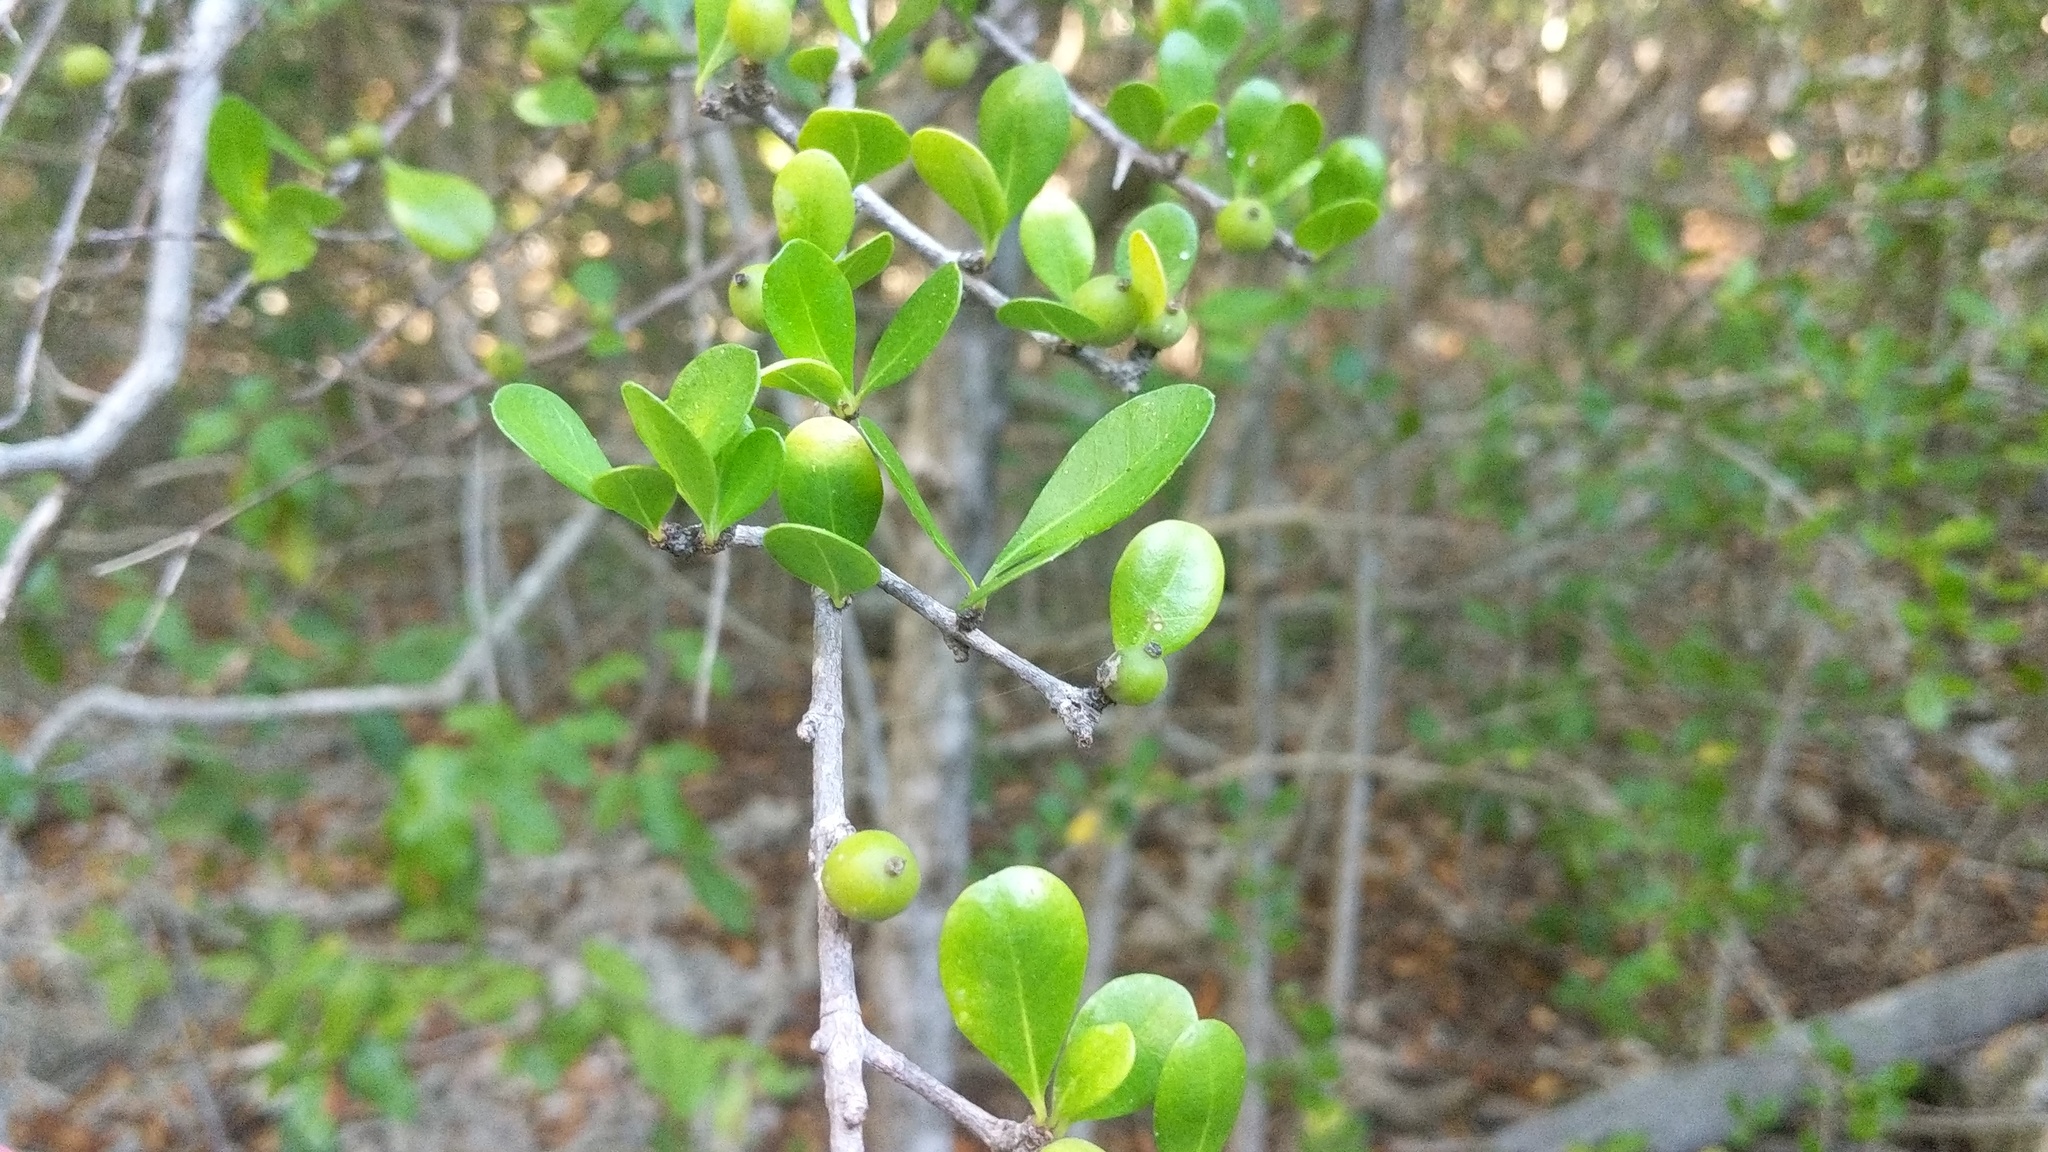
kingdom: Plantae
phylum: Tracheophyta
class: Magnoliopsida
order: Gentianales
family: Rubiaceae
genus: Randia
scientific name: Randia aculeata
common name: Inkberry
